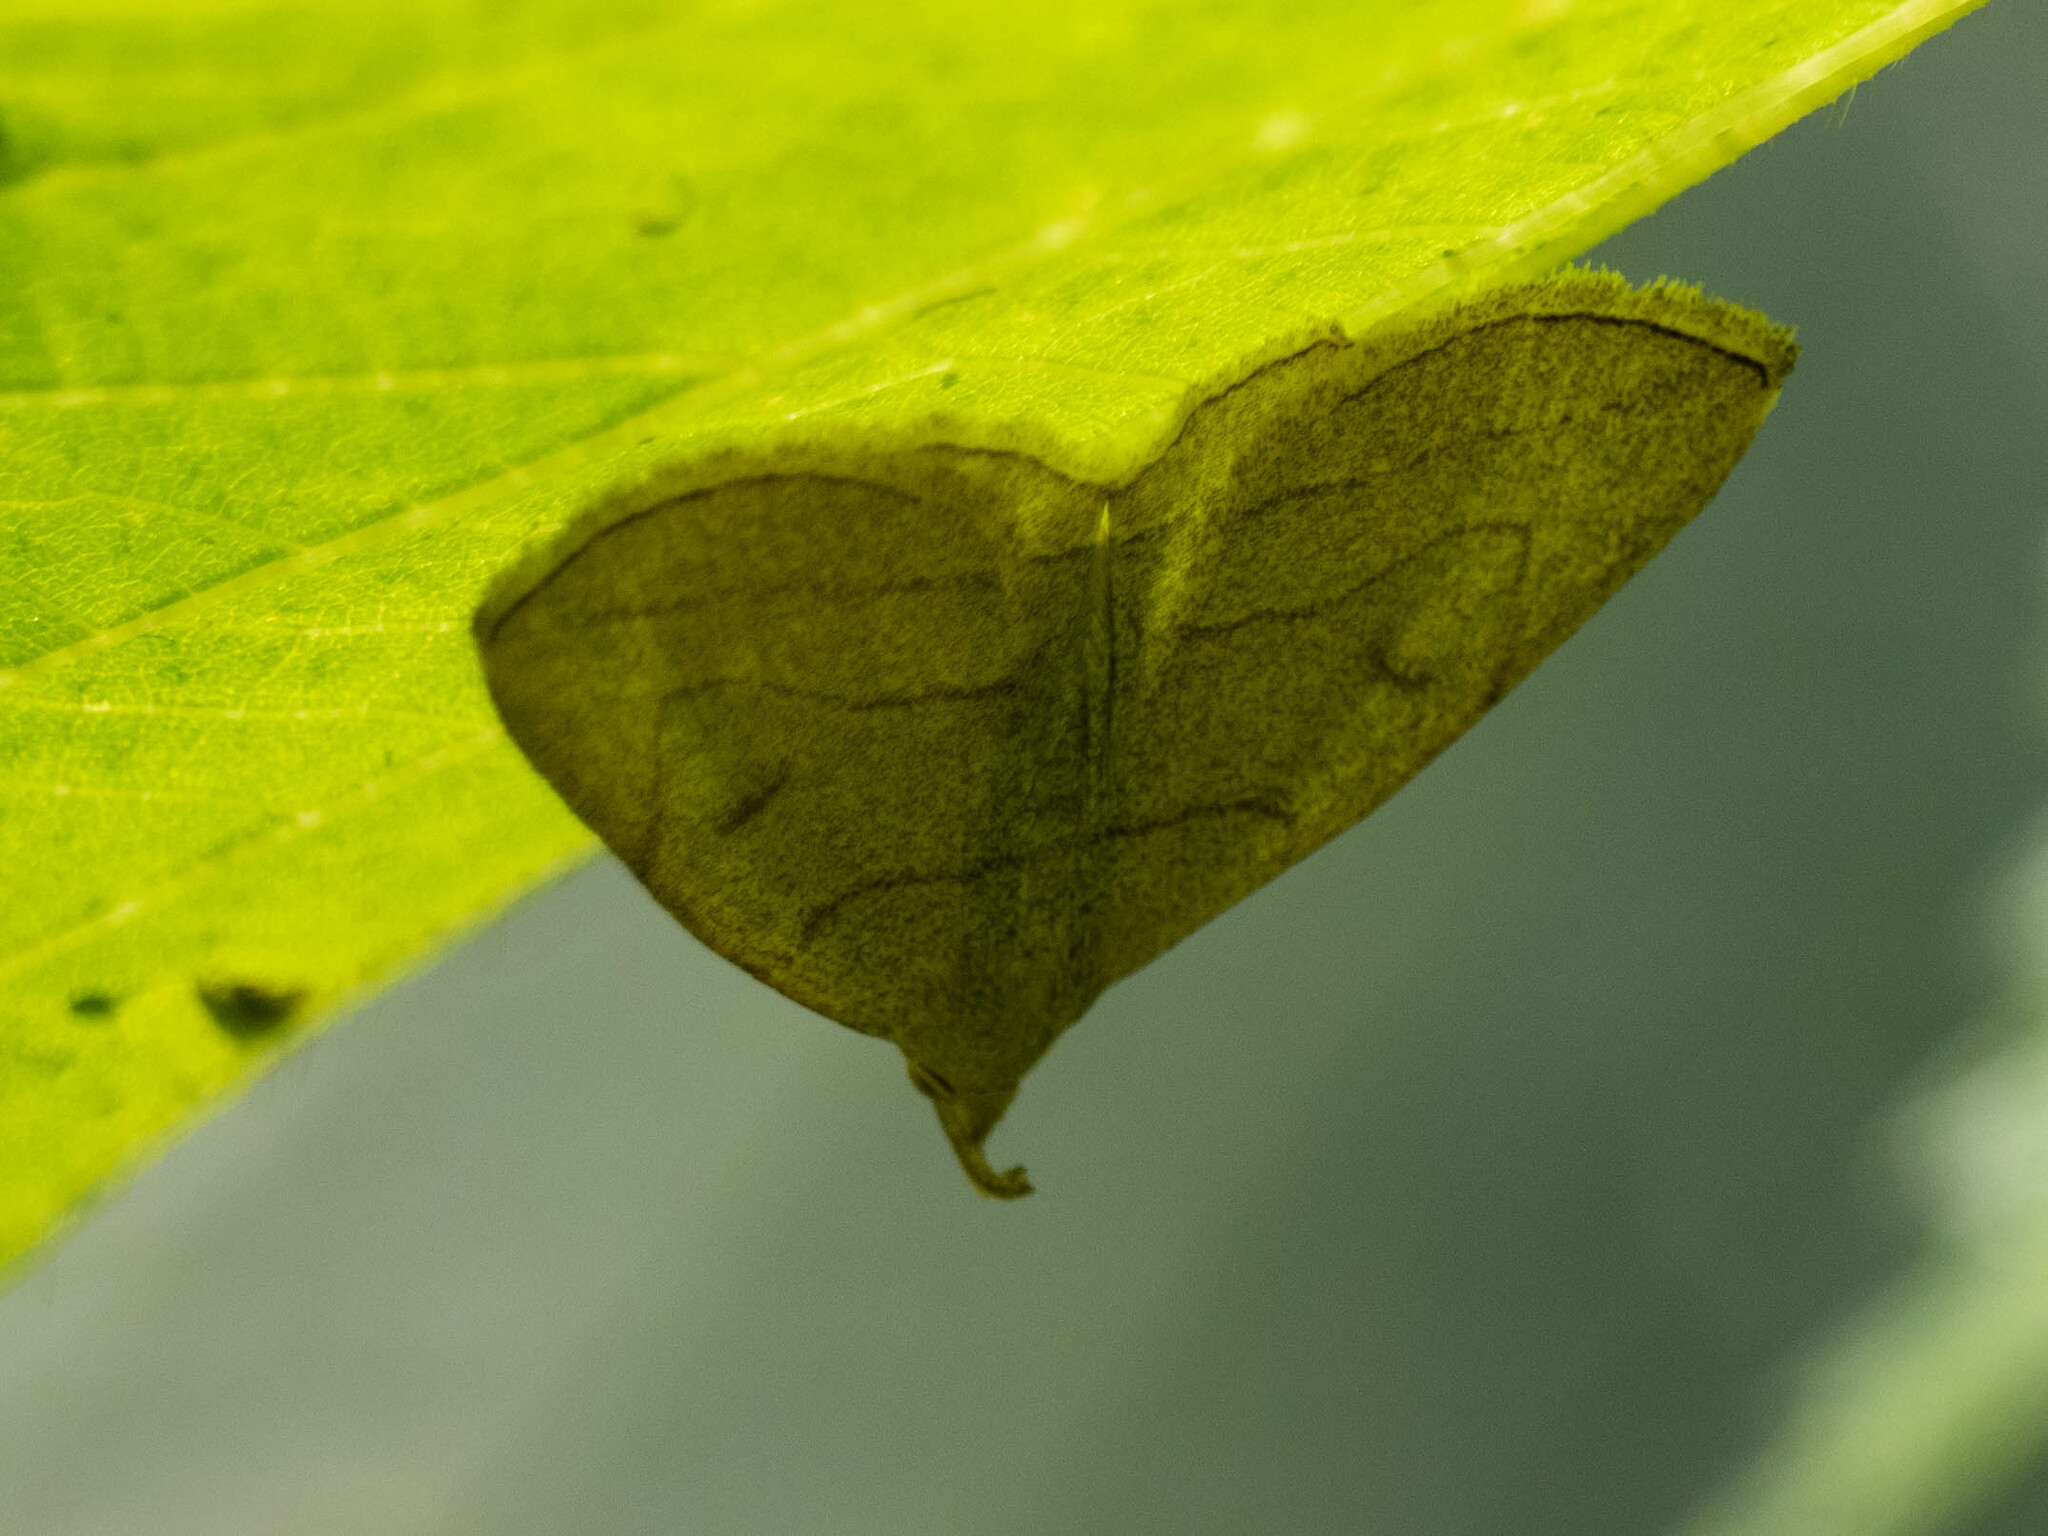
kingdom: Animalia
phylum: Arthropoda
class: Insecta
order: Lepidoptera
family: Erebidae
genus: Zanclognatha
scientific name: Zanclognatha pedipilalis
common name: Grayish fan-foot
